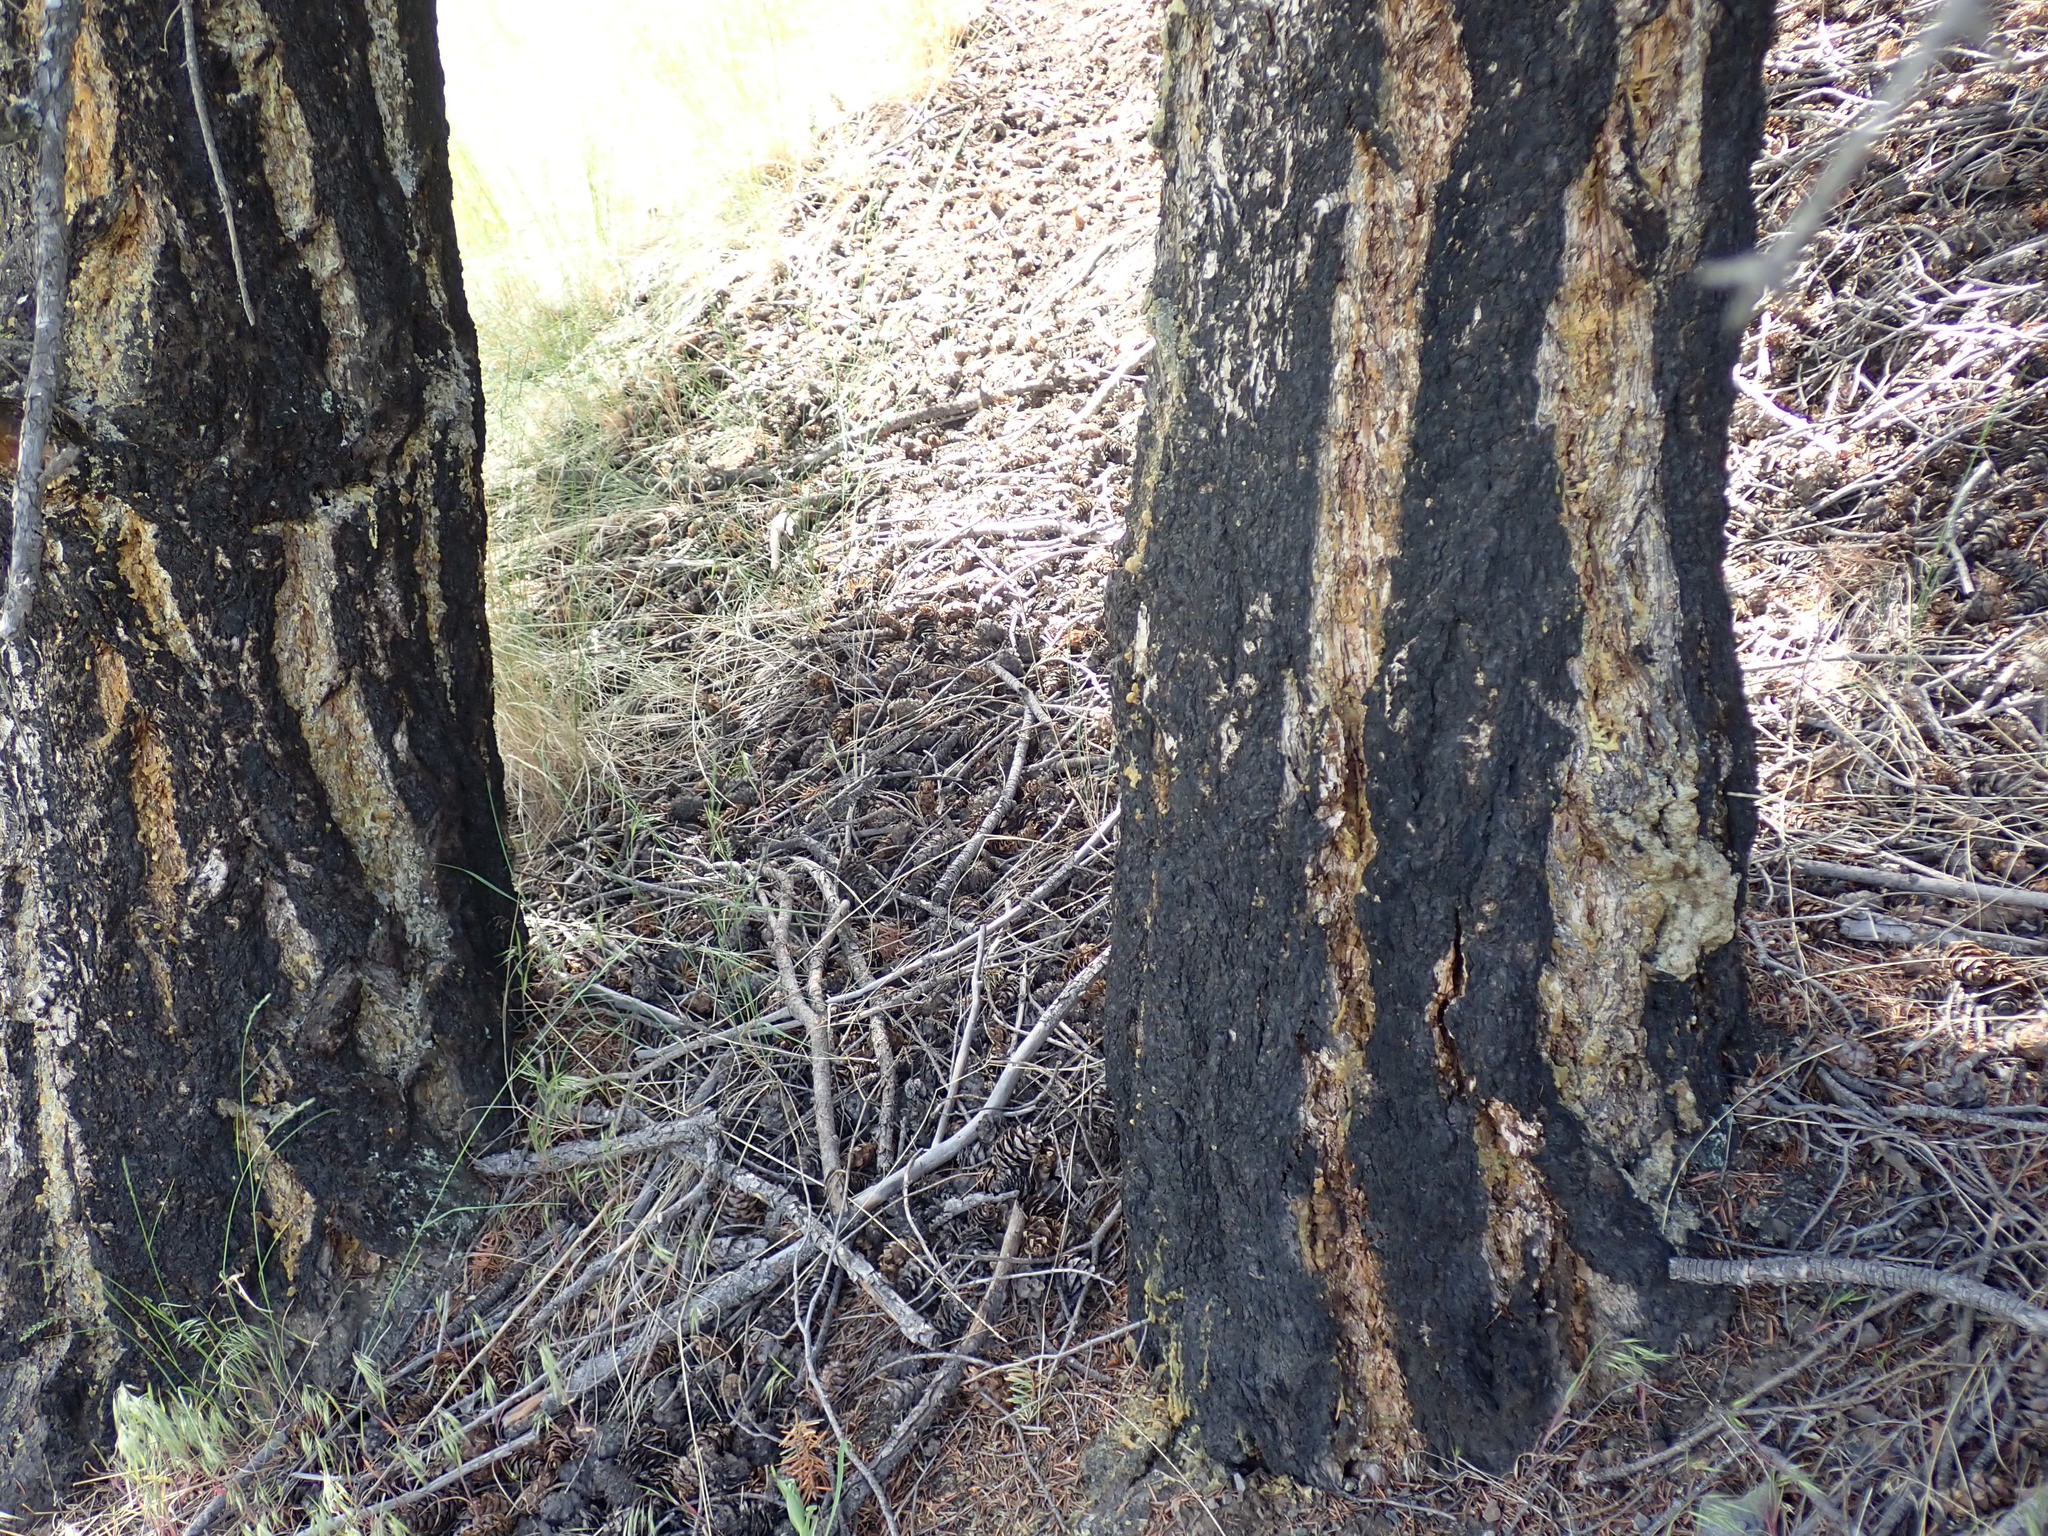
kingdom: Plantae
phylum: Tracheophyta
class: Pinopsida
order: Pinales
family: Pinaceae
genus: Pseudotsuga
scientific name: Pseudotsuga menziesii
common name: Douglas fir
